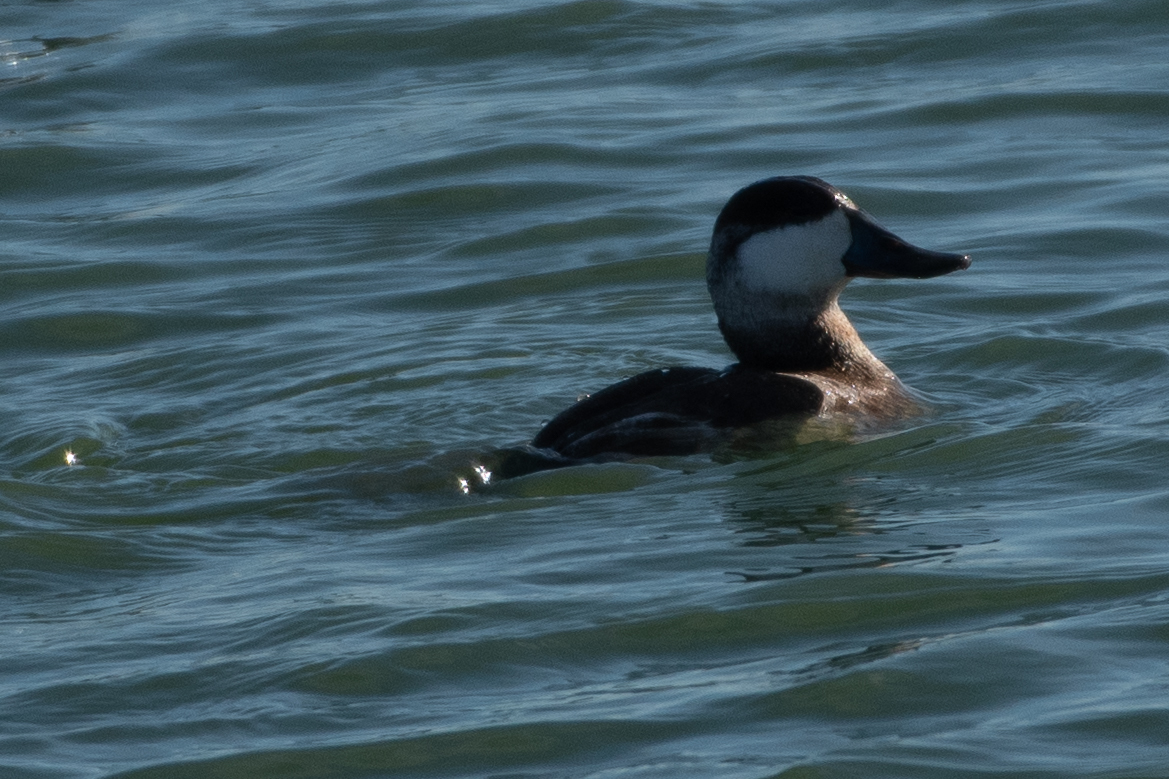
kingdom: Animalia
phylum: Chordata
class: Aves
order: Anseriformes
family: Anatidae
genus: Oxyura
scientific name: Oxyura jamaicensis
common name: Ruddy duck
